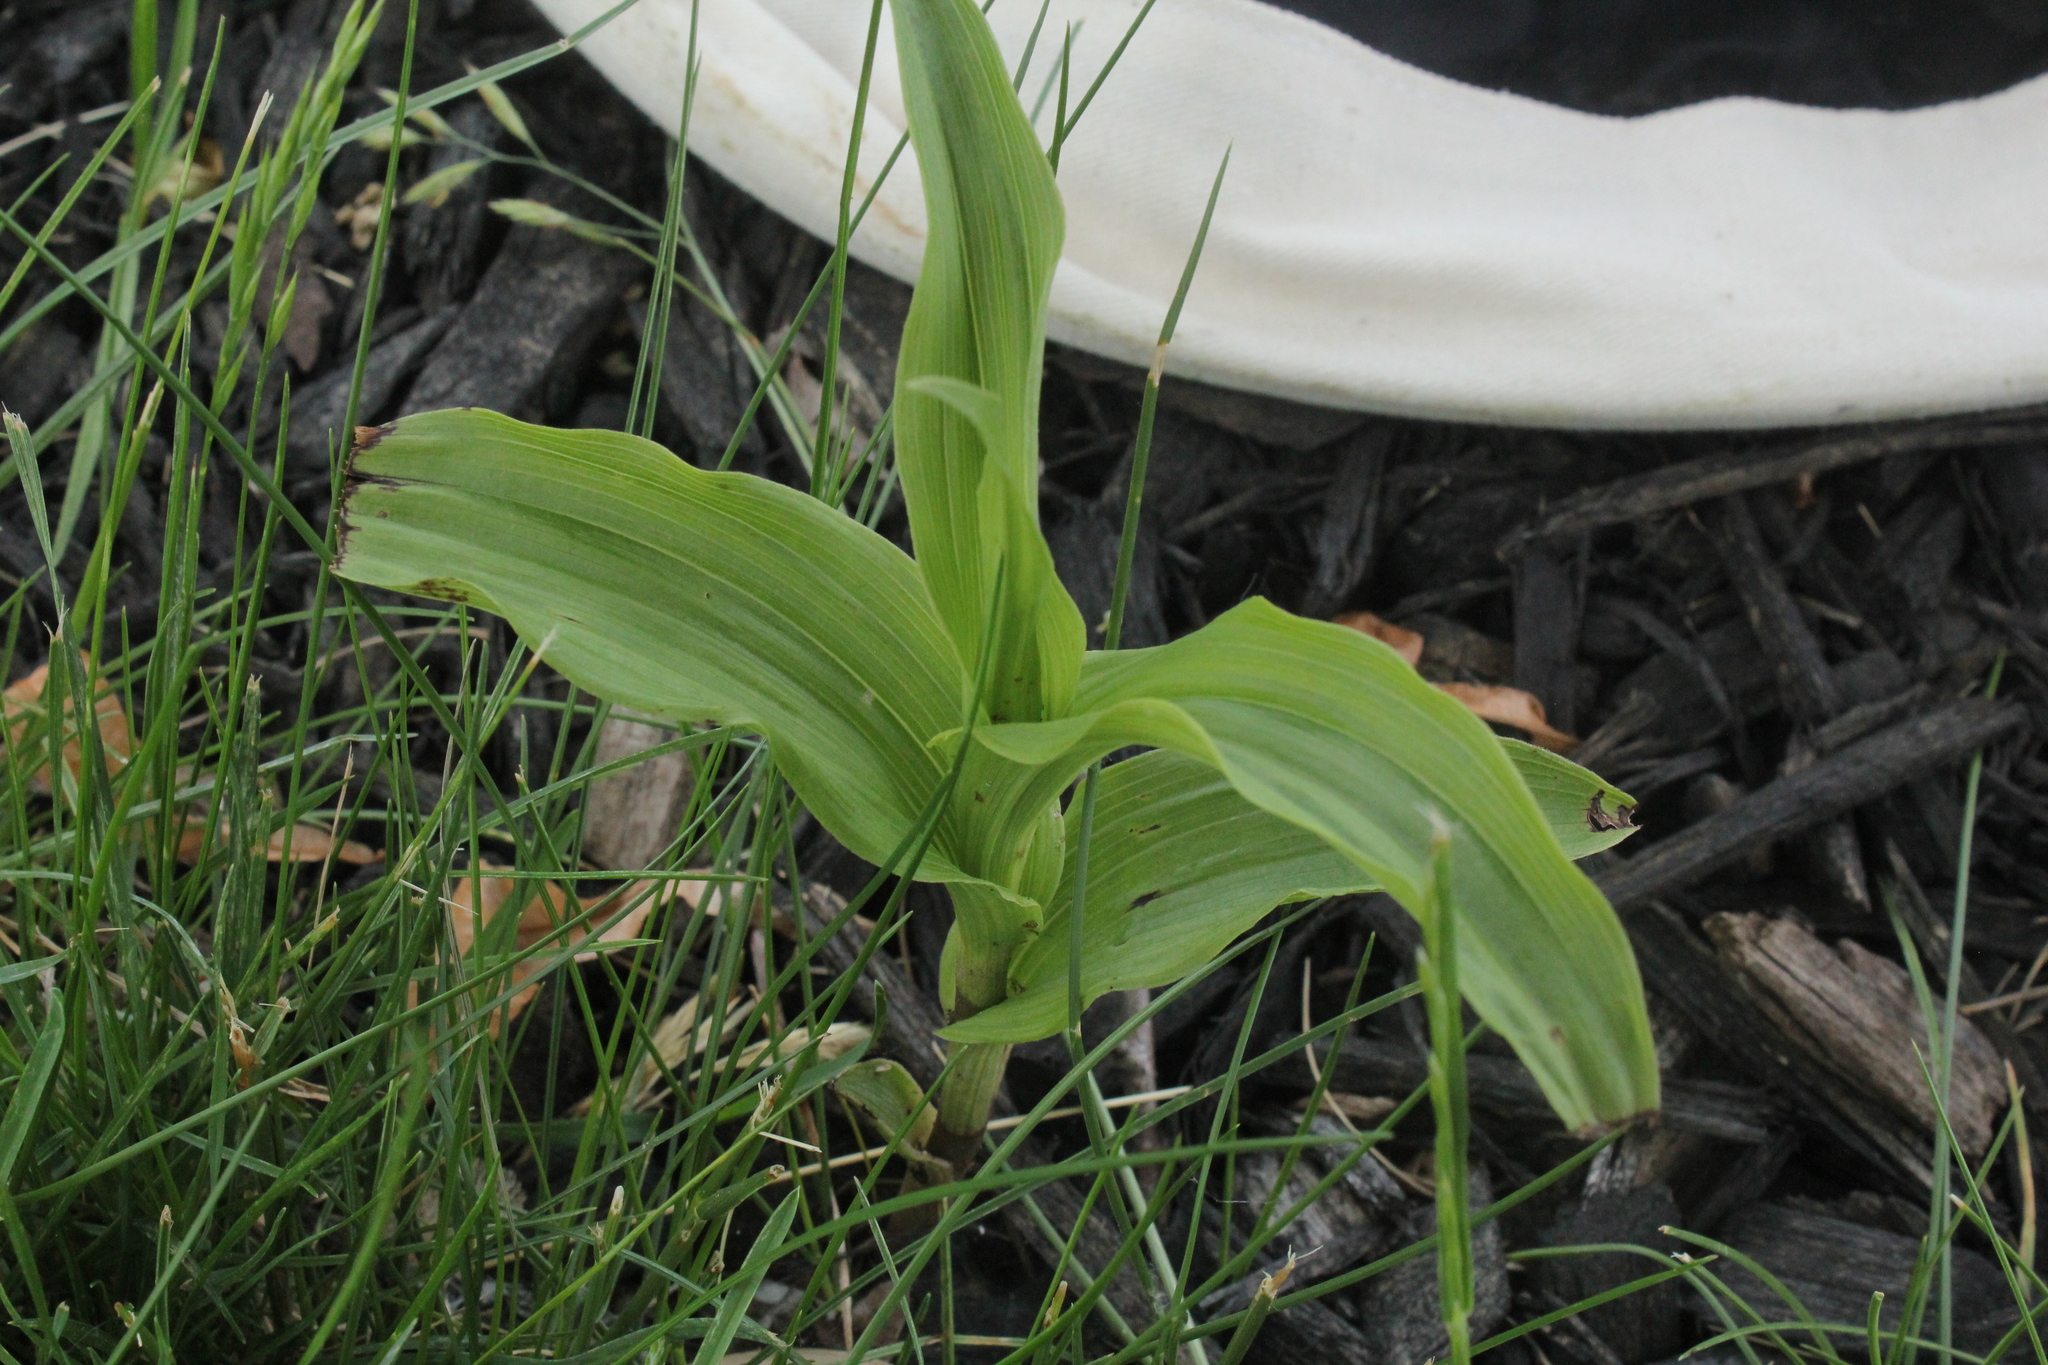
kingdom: Plantae
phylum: Tracheophyta
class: Liliopsida
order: Asparagales
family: Orchidaceae
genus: Epipactis
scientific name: Epipactis helleborine
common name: Broad-leaved helleborine
